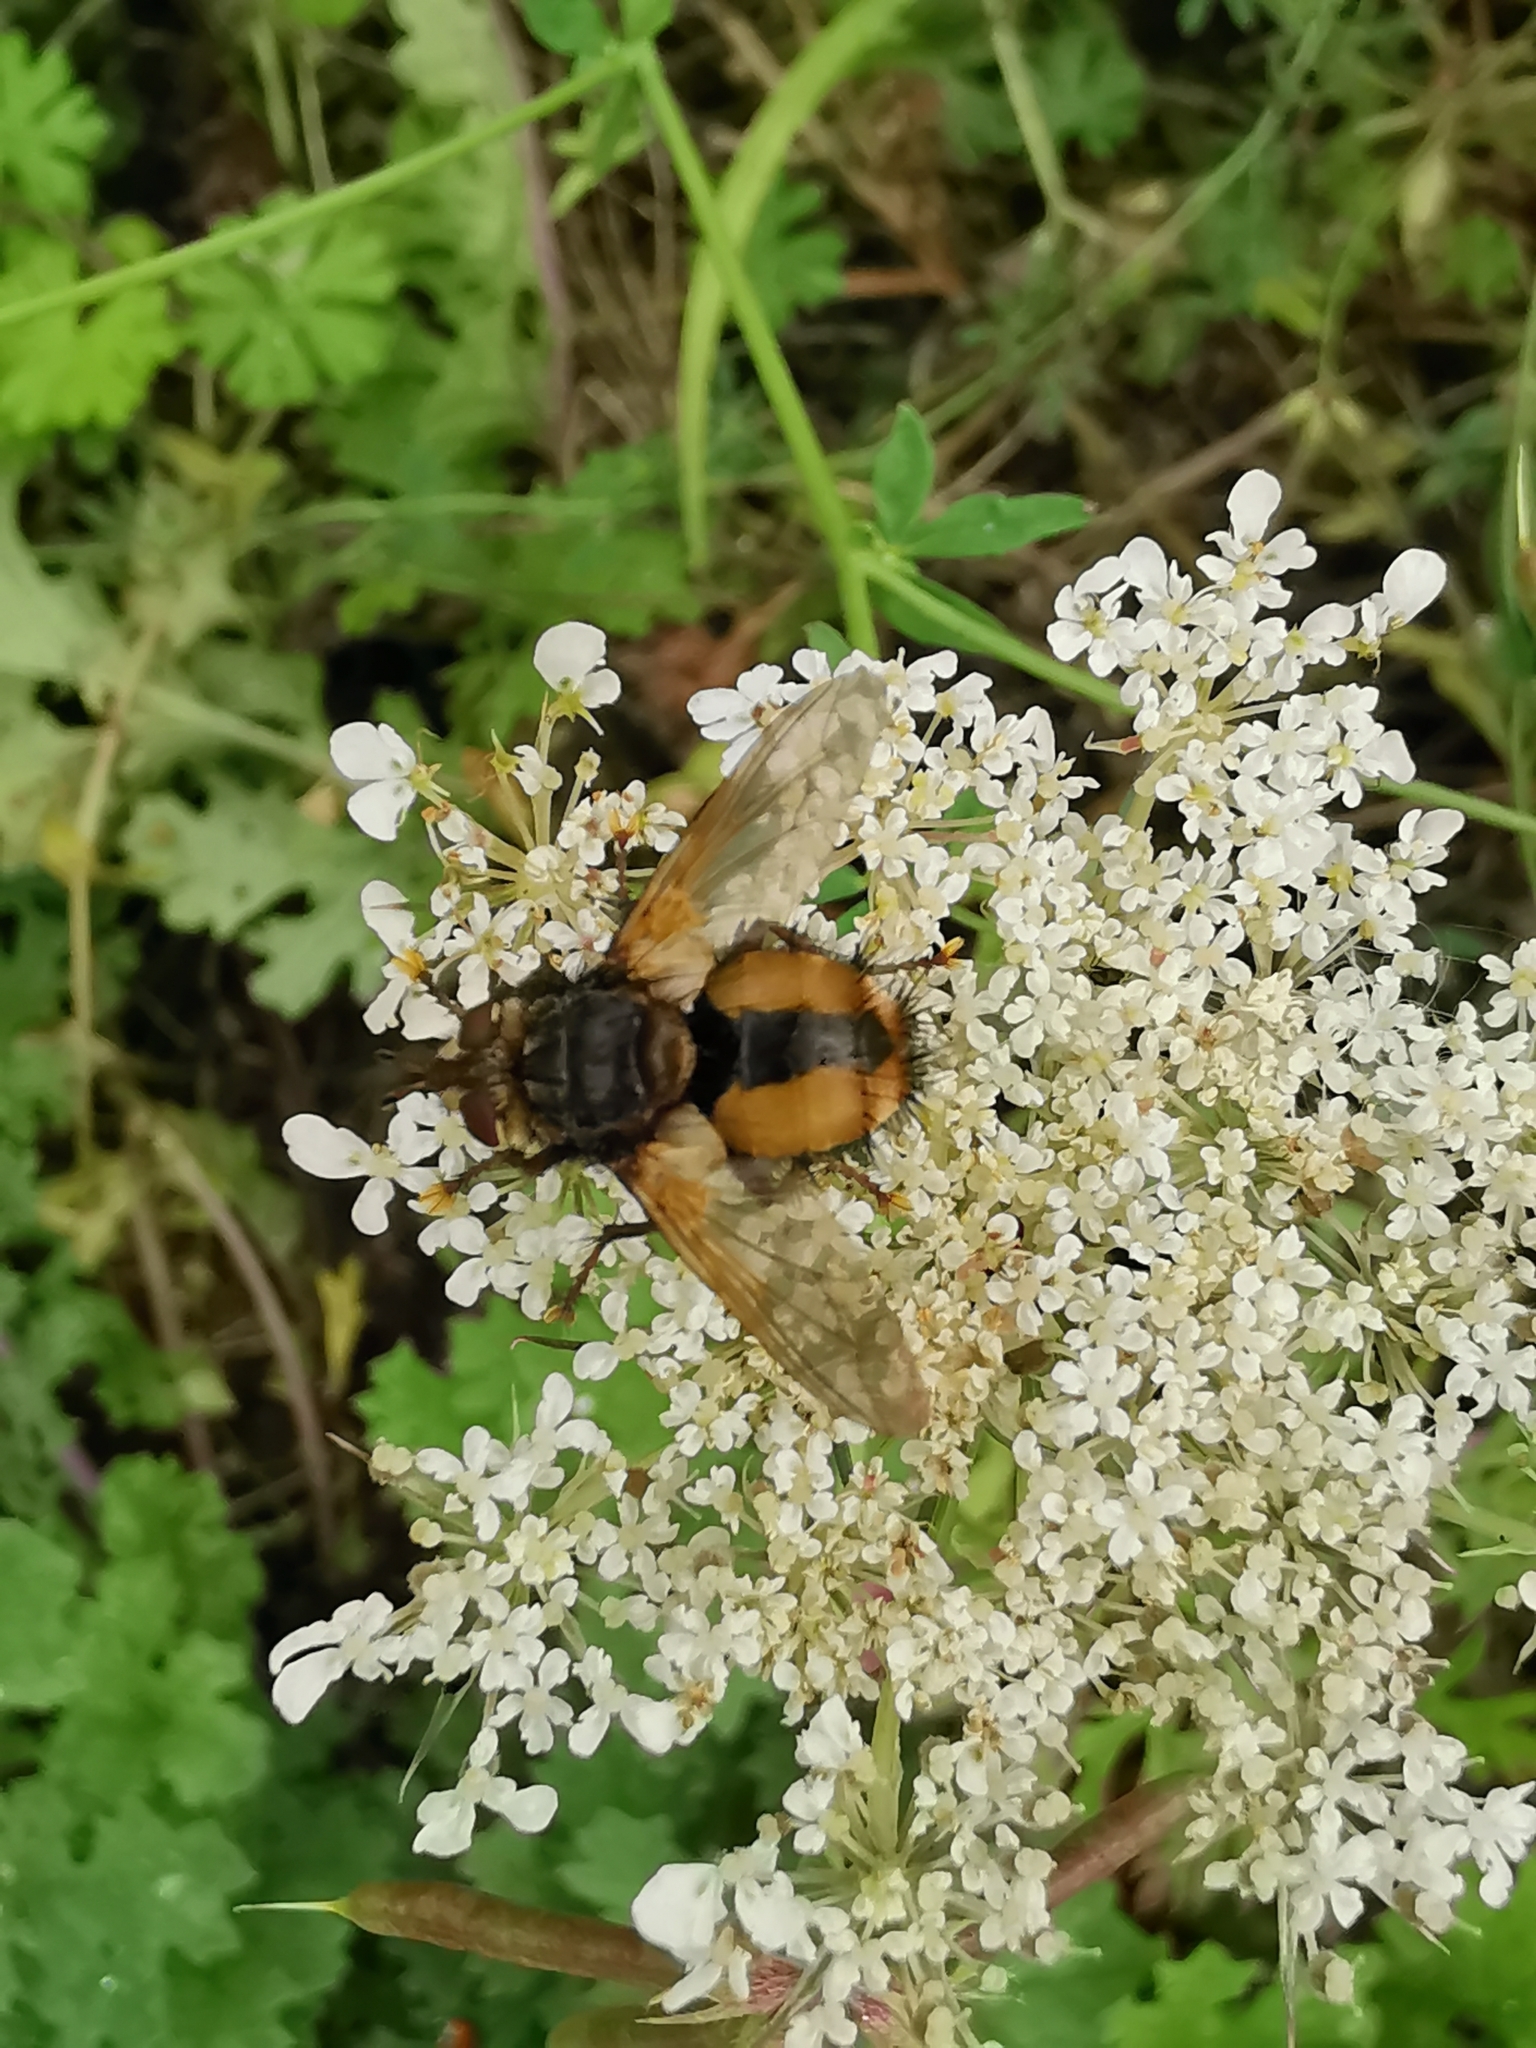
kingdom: Animalia
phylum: Arthropoda
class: Insecta
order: Diptera
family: Tachinidae
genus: Tachina
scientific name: Tachina fera
